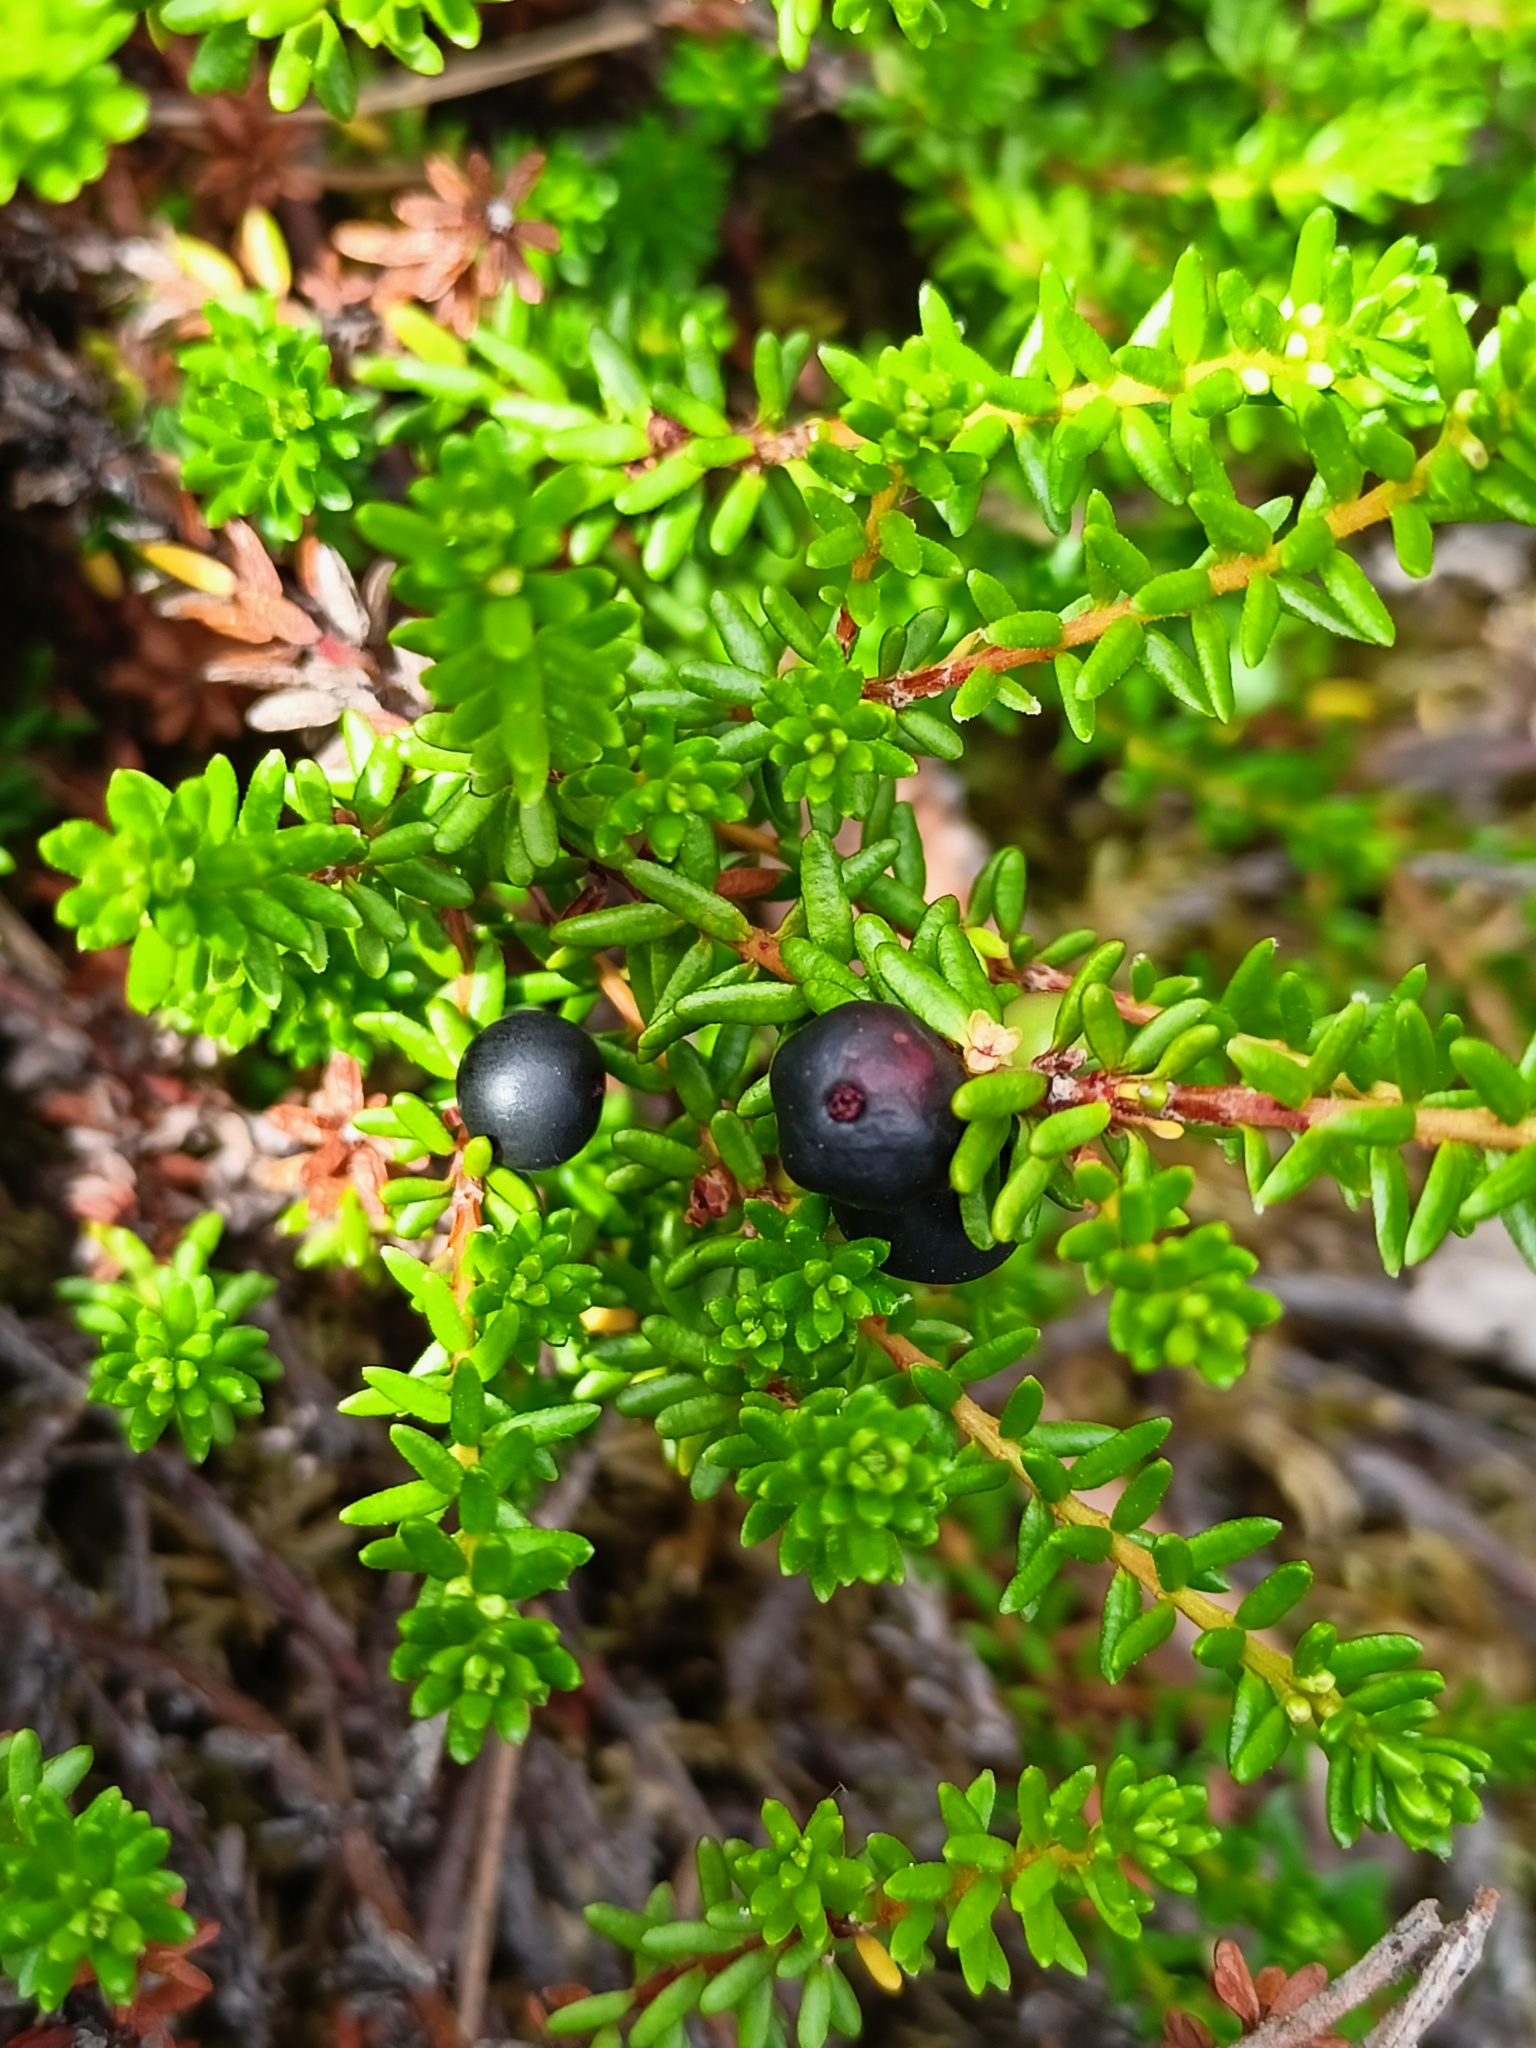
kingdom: Plantae
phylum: Tracheophyta
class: Magnoliopsida
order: Ericales
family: Ericaceae
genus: Empetrum
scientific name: Empetrum nigrum
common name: Black crowberry
